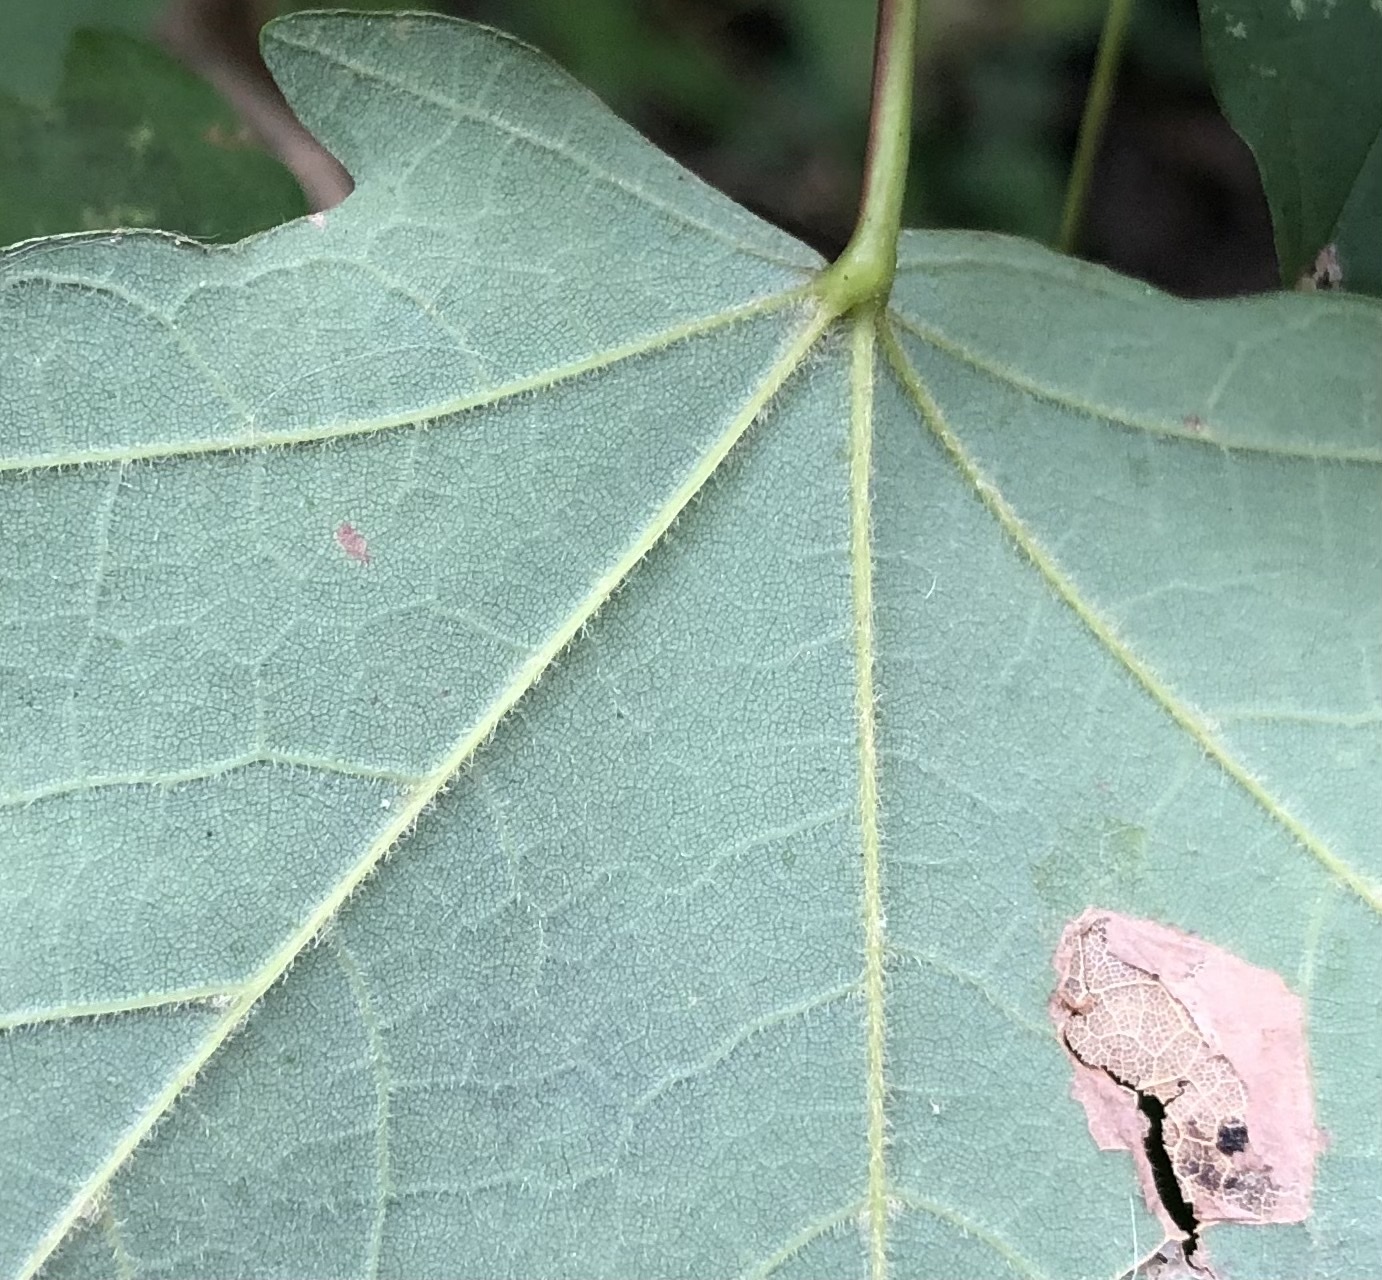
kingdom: Plantae
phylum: Tracheophyta
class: Magnoliopsida
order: Sapindales
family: Sapindaceae
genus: Acer
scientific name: Acer floridanum
